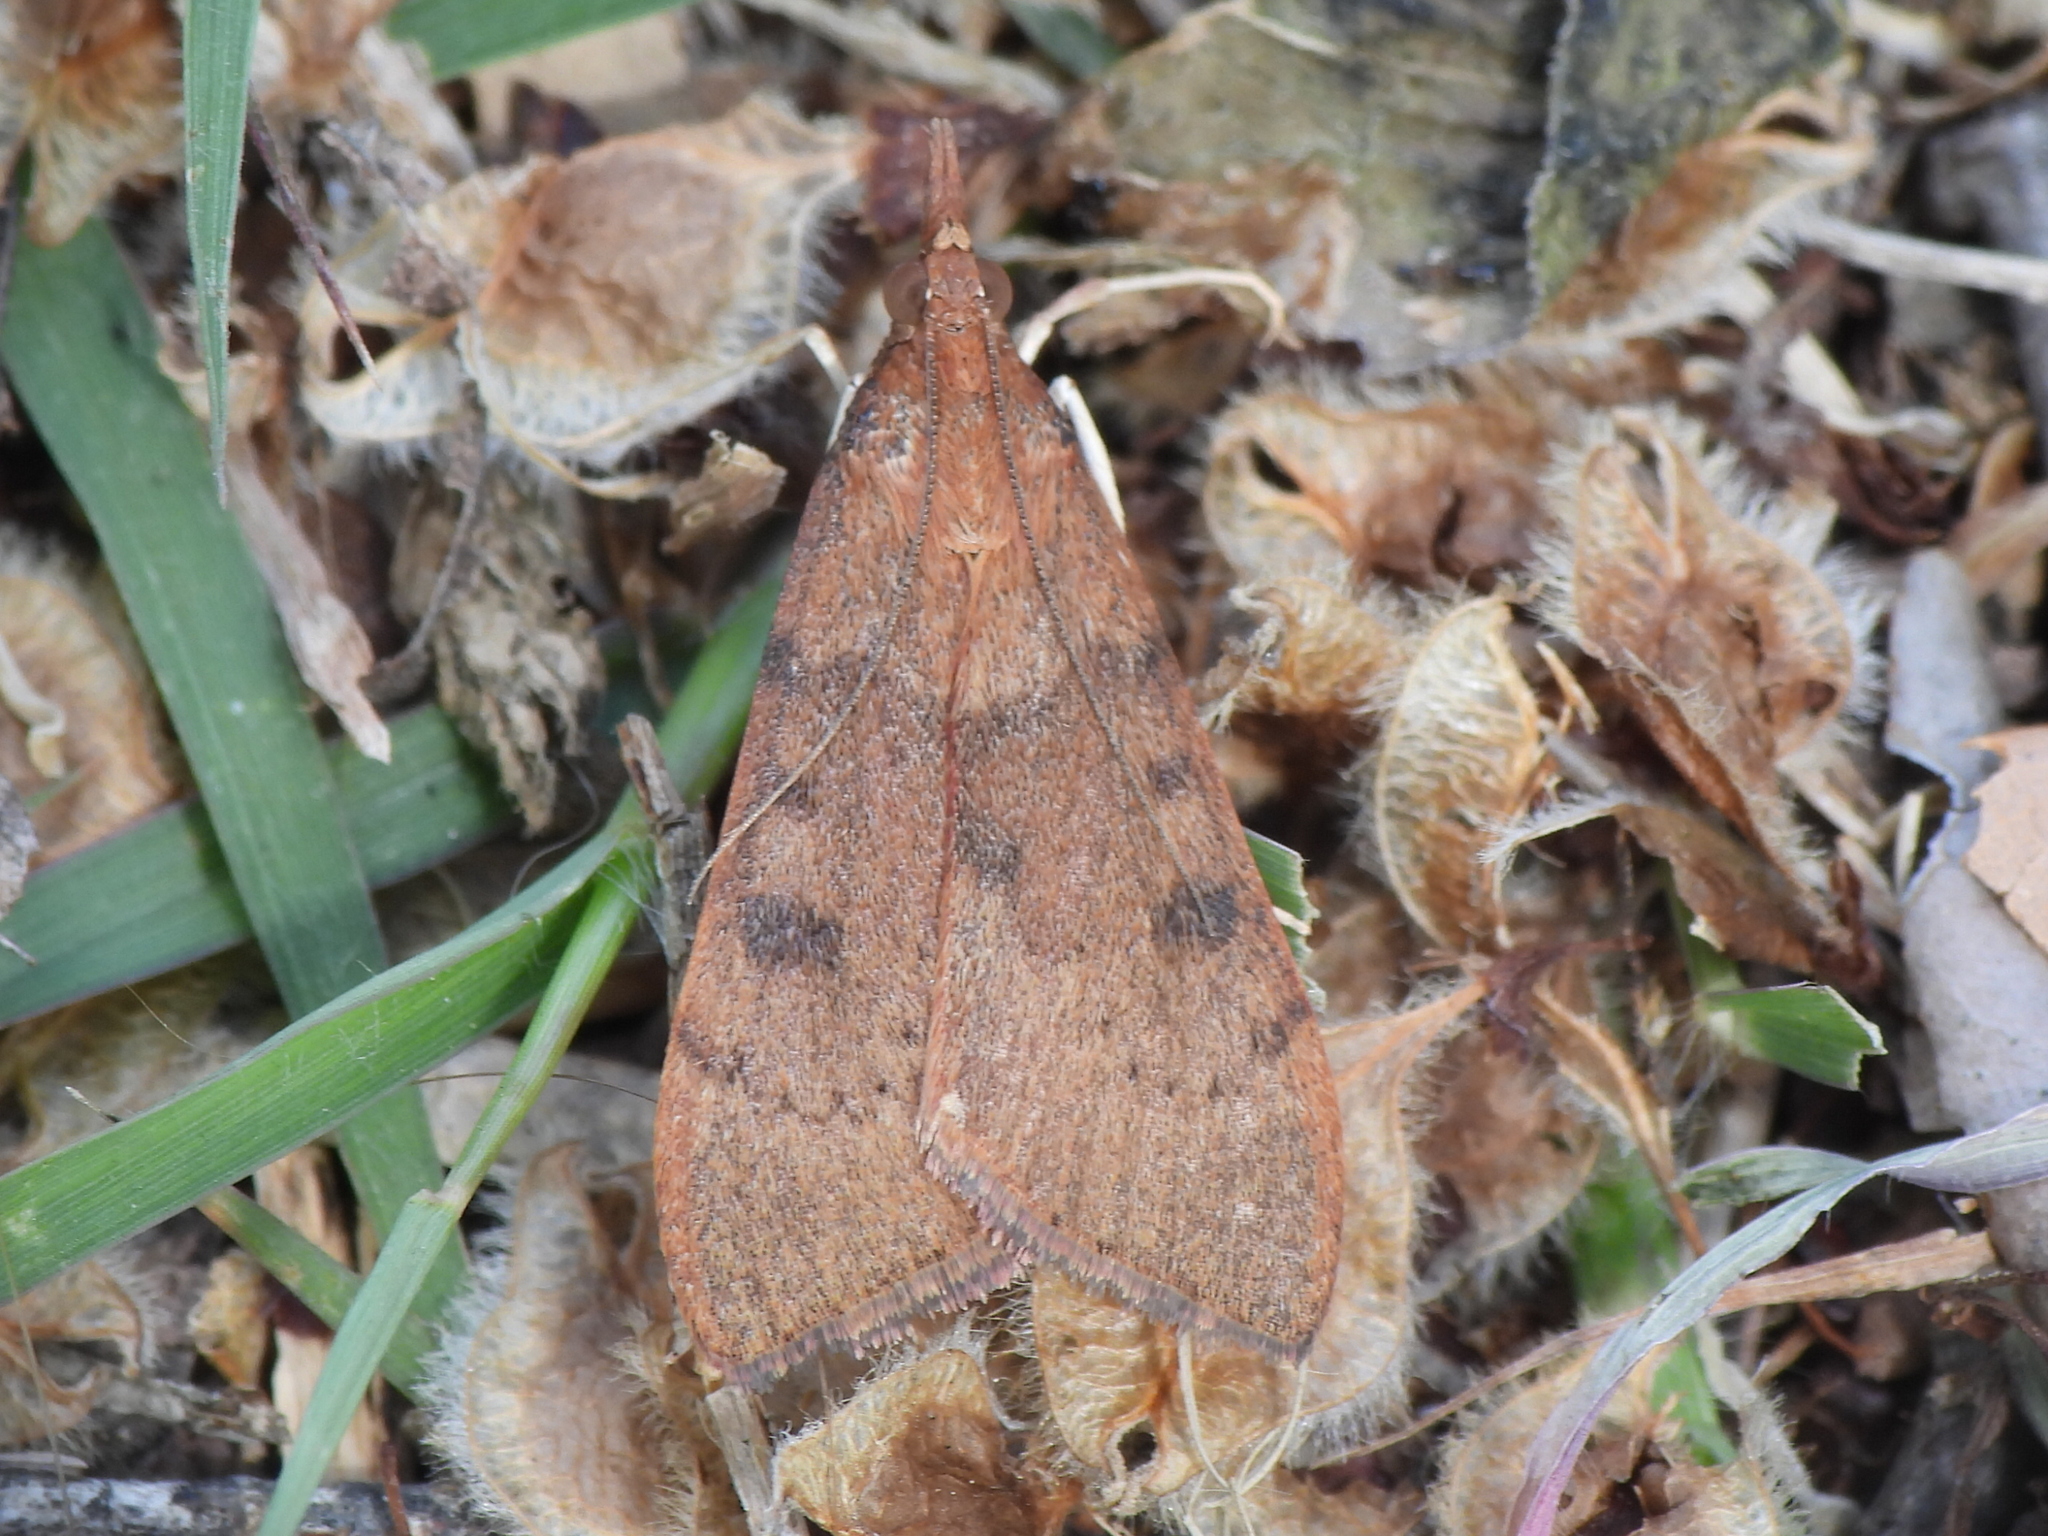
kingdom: Animalia
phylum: Arthropoda
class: Insecta
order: Lepidoptera
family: Crambidae
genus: Uresiphita
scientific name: Uresiphita reversalis
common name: Genista broom moth
